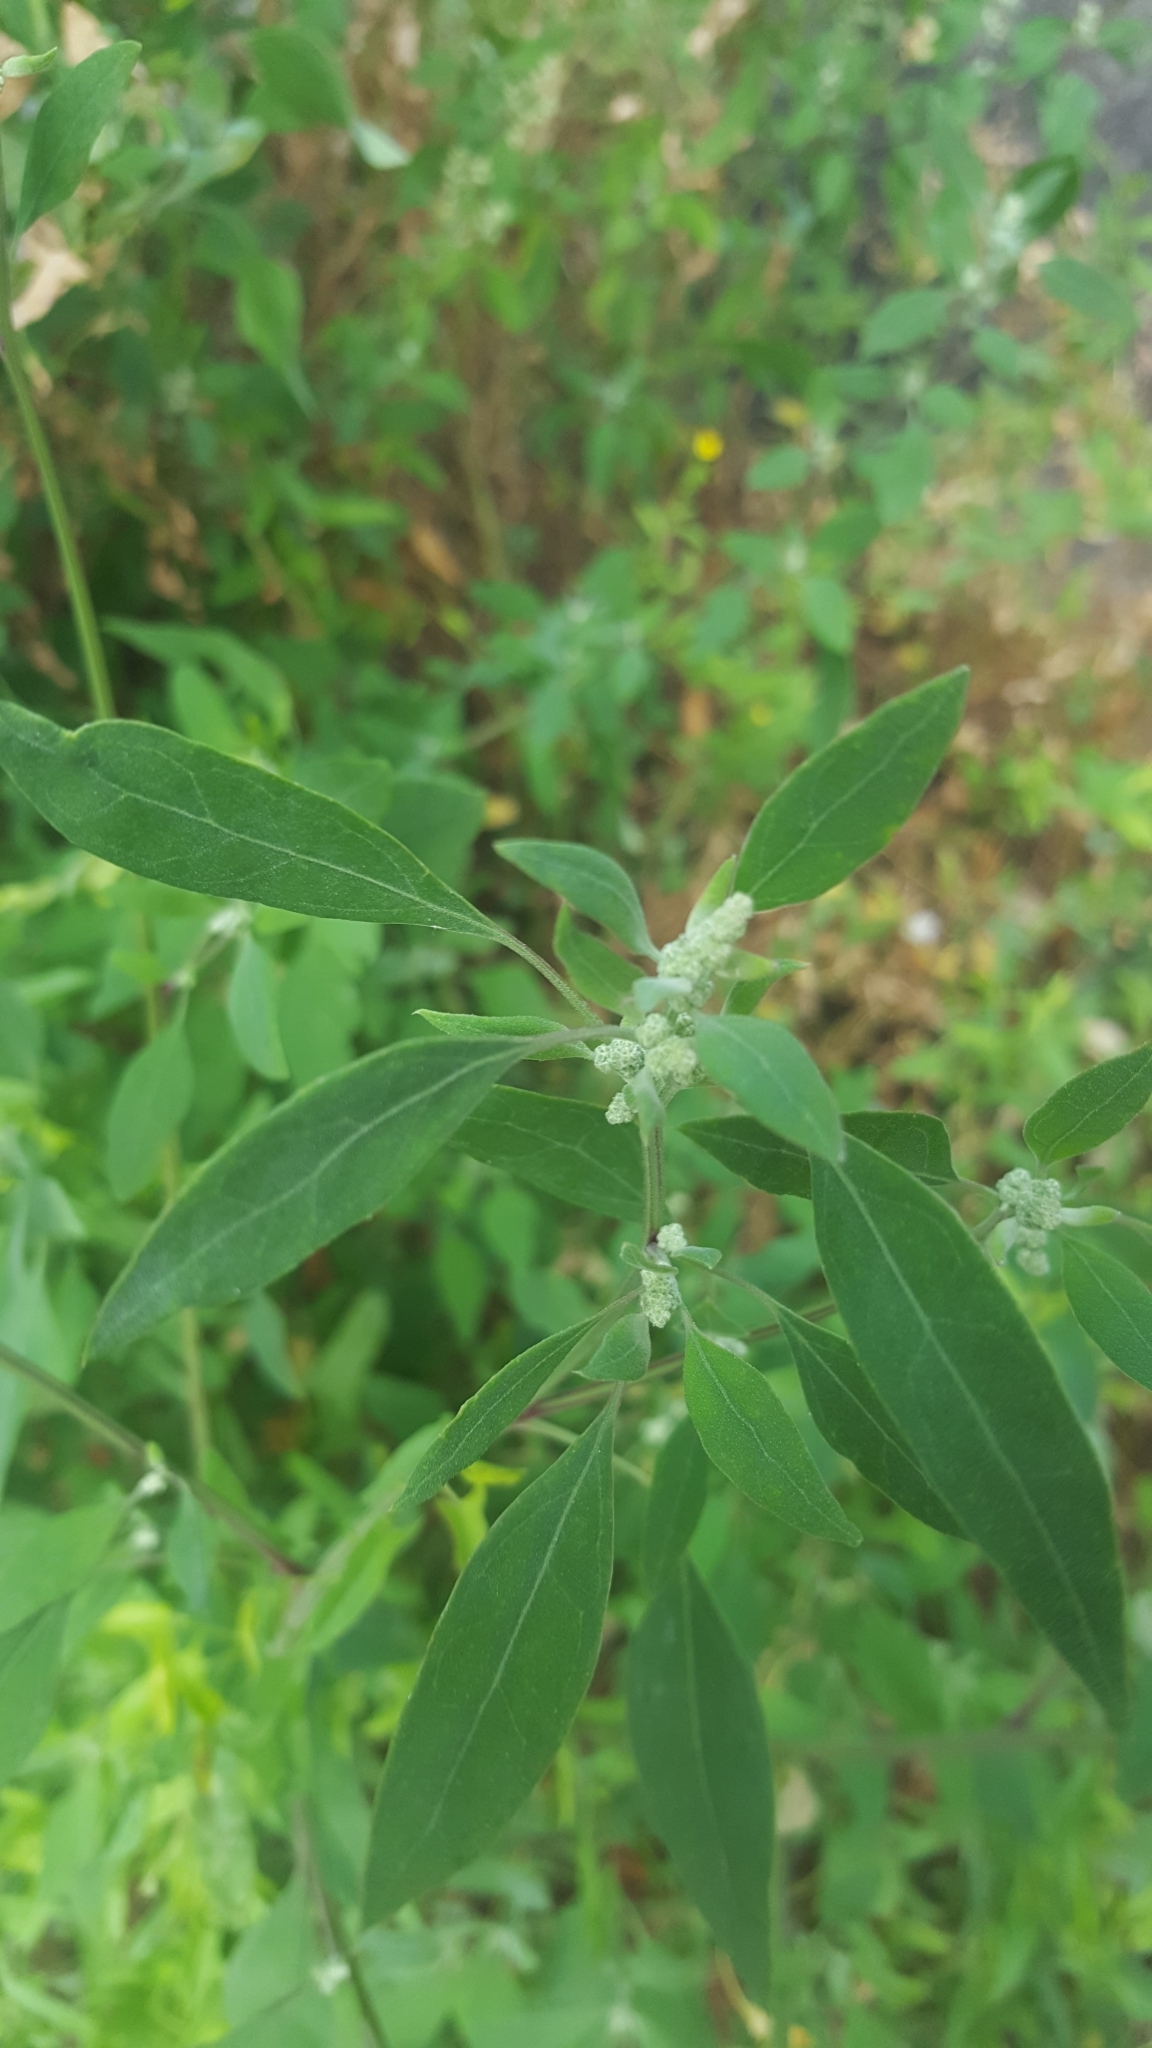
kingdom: Plantae
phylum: Tracheophyta
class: Magnoliopsida
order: Caryophyllales
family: Amaranthaceae
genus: Chenopodium
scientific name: Chenopodium album
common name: Fat-hen
